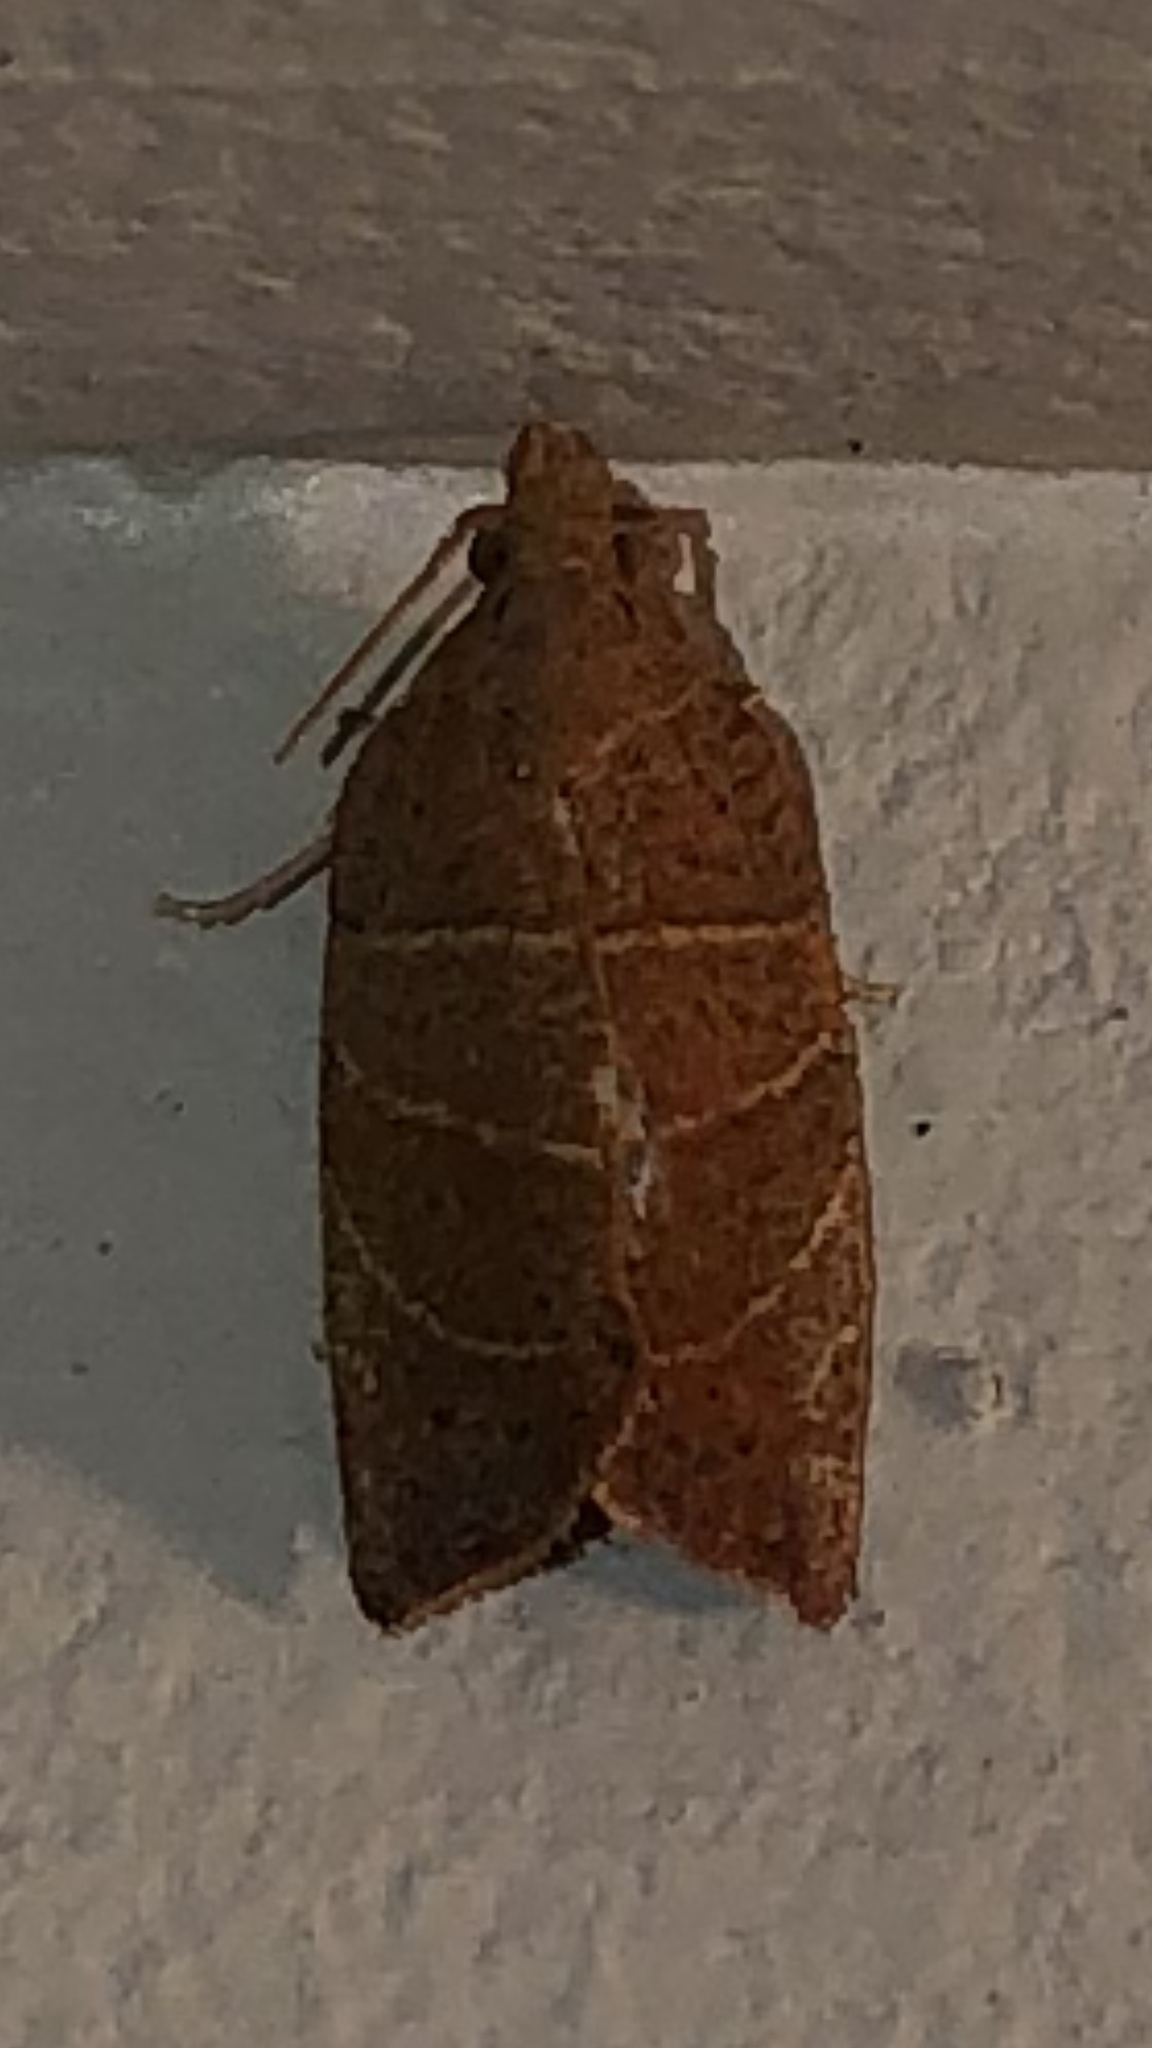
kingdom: Animalia
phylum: Arthropoda
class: Insecta
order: Lepidoptera
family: Tortricidae
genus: Pandemis
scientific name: Pandemis limitata
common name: Three-lined leafroller moth
